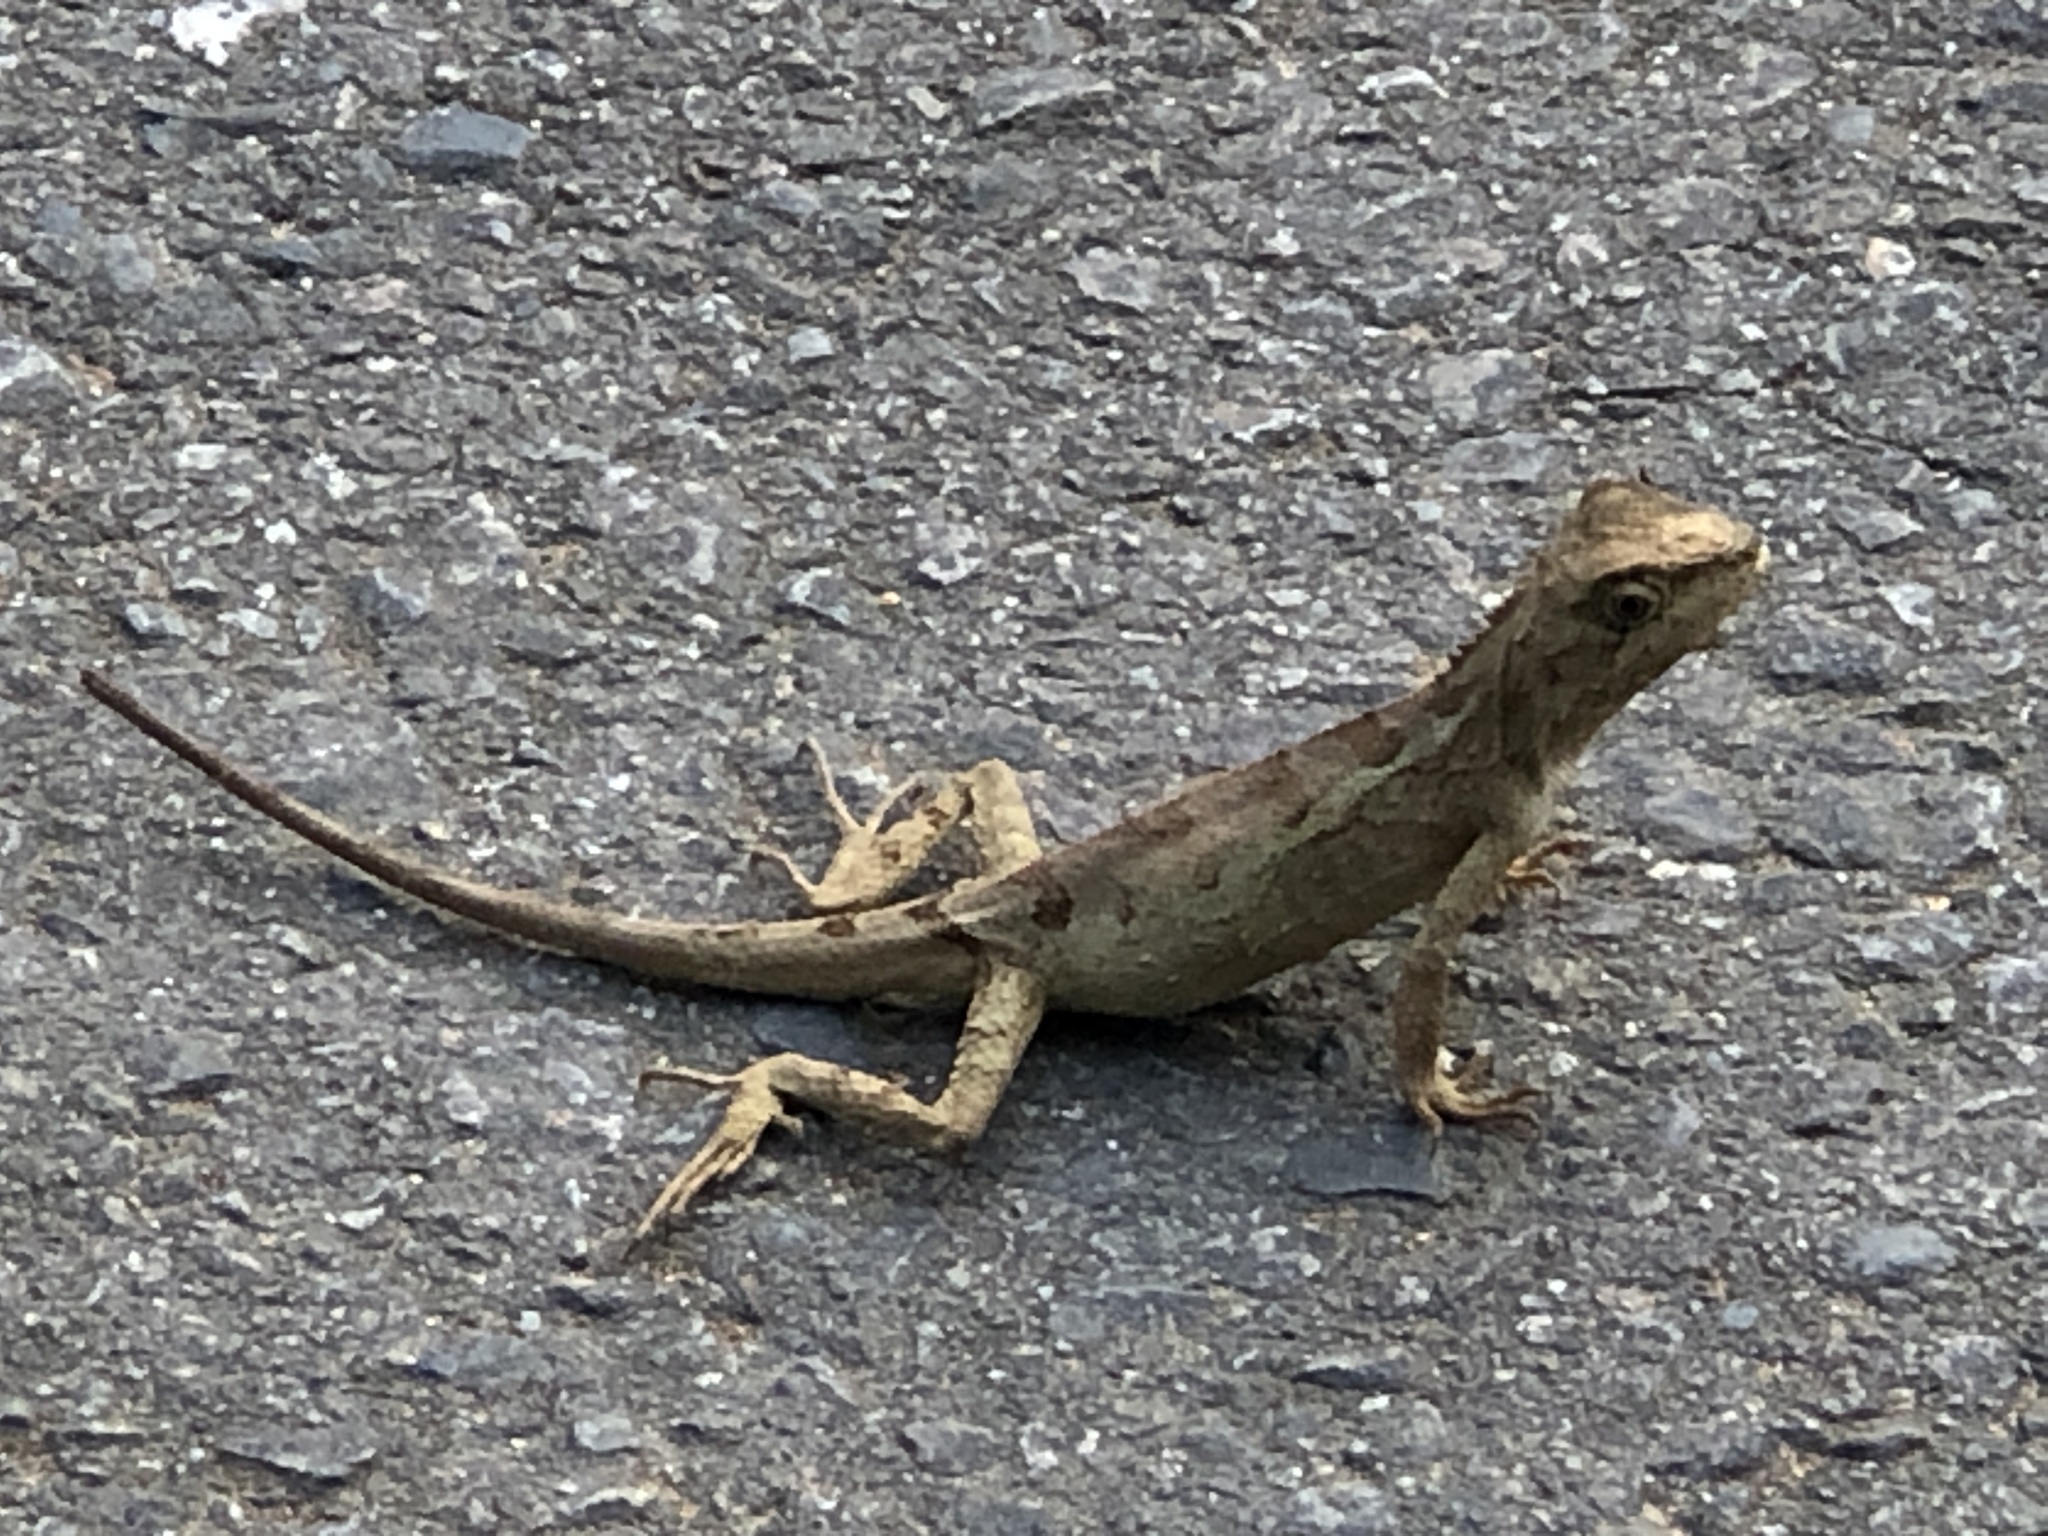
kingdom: Animalia
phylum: Chordata
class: Squamata
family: Agamidae
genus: Diploderma
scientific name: Diploderma swinhonis
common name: Taiwan japalure
